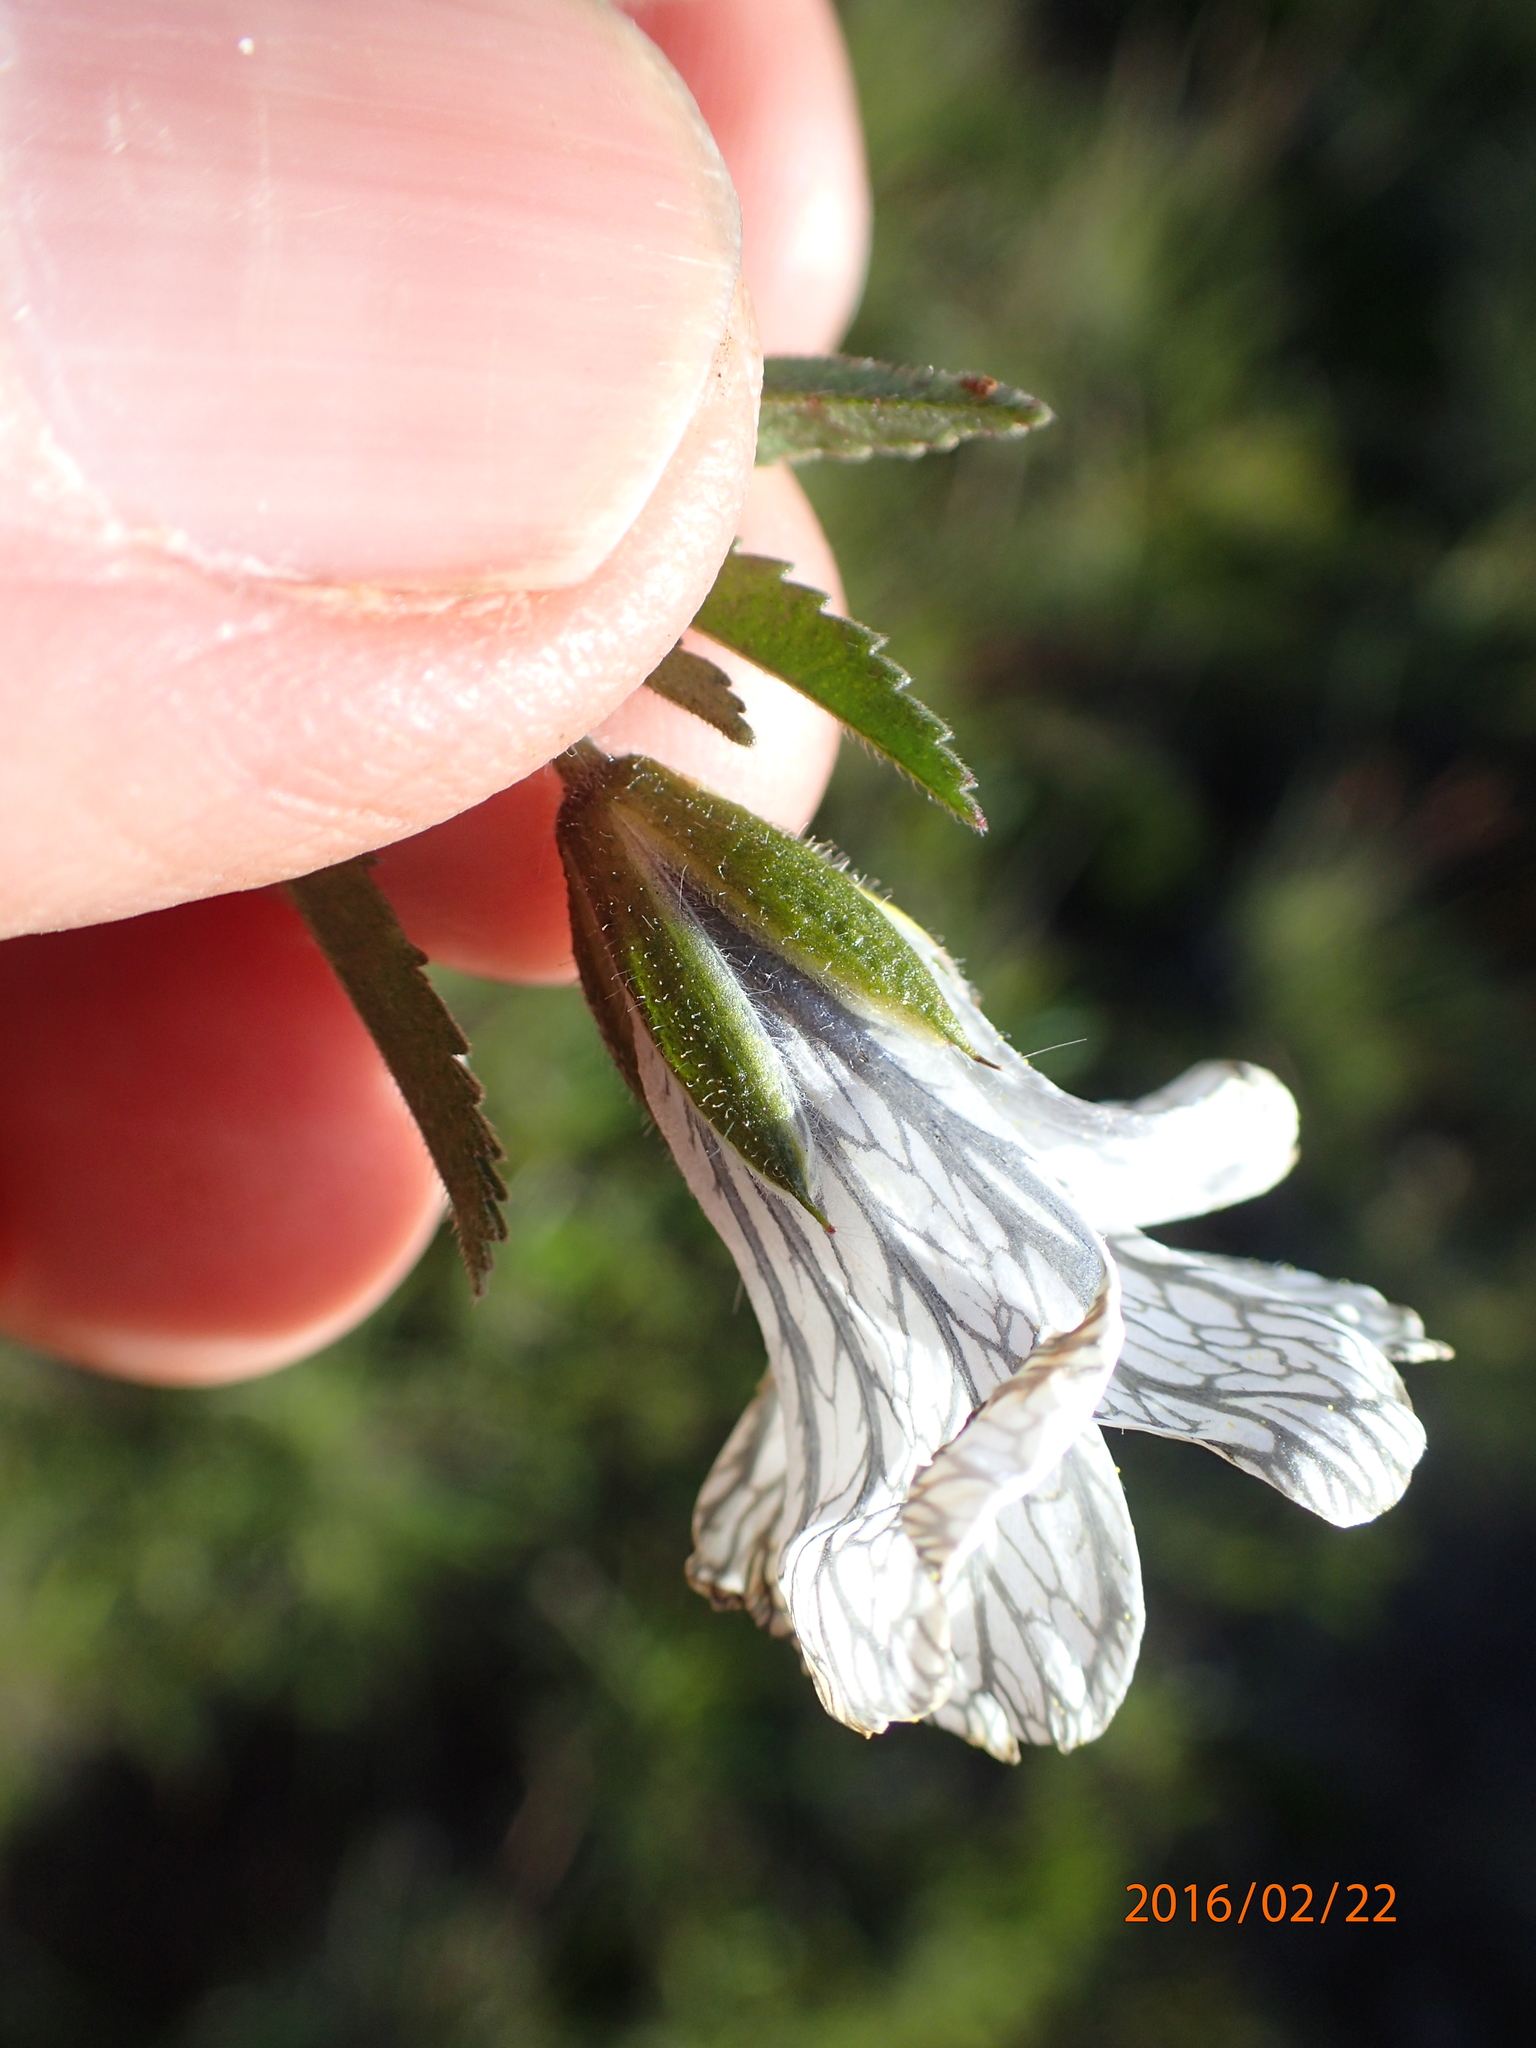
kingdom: Plantae
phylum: Tracheophyta
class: Magnoliopsida
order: Geraniales
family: Geraniaceae
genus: Monsonia
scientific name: Monsonia attenuata
